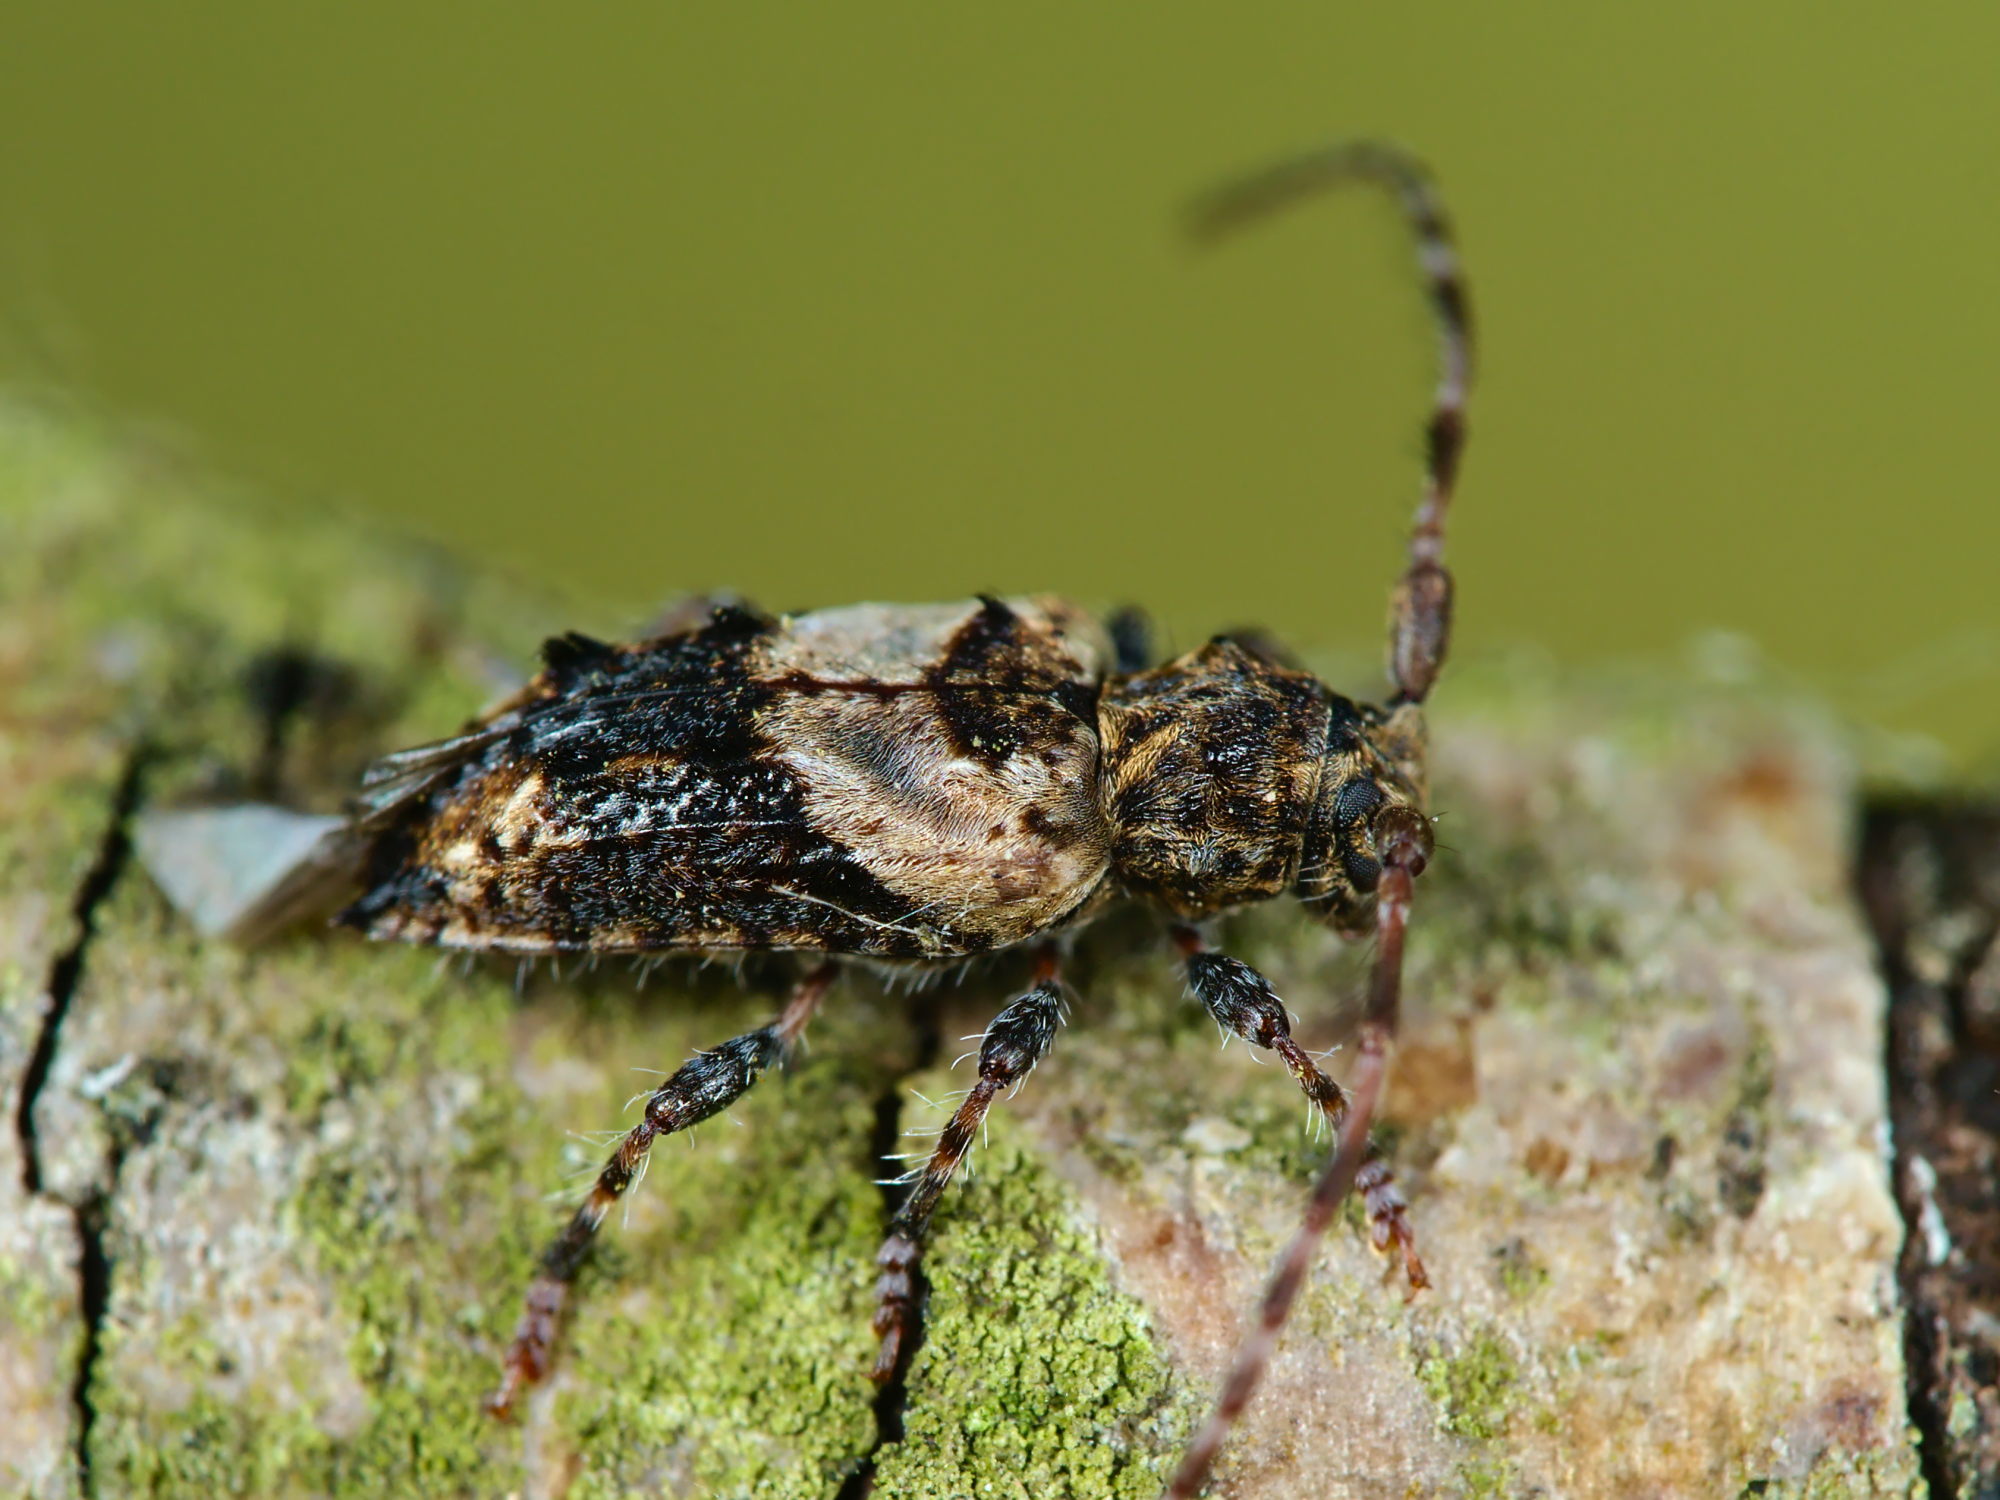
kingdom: Animalia
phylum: Arthropoda
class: Insecta
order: Coleoptera
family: Cerambycidae
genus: Pogonocherus
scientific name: Pogonocherus hispidus
